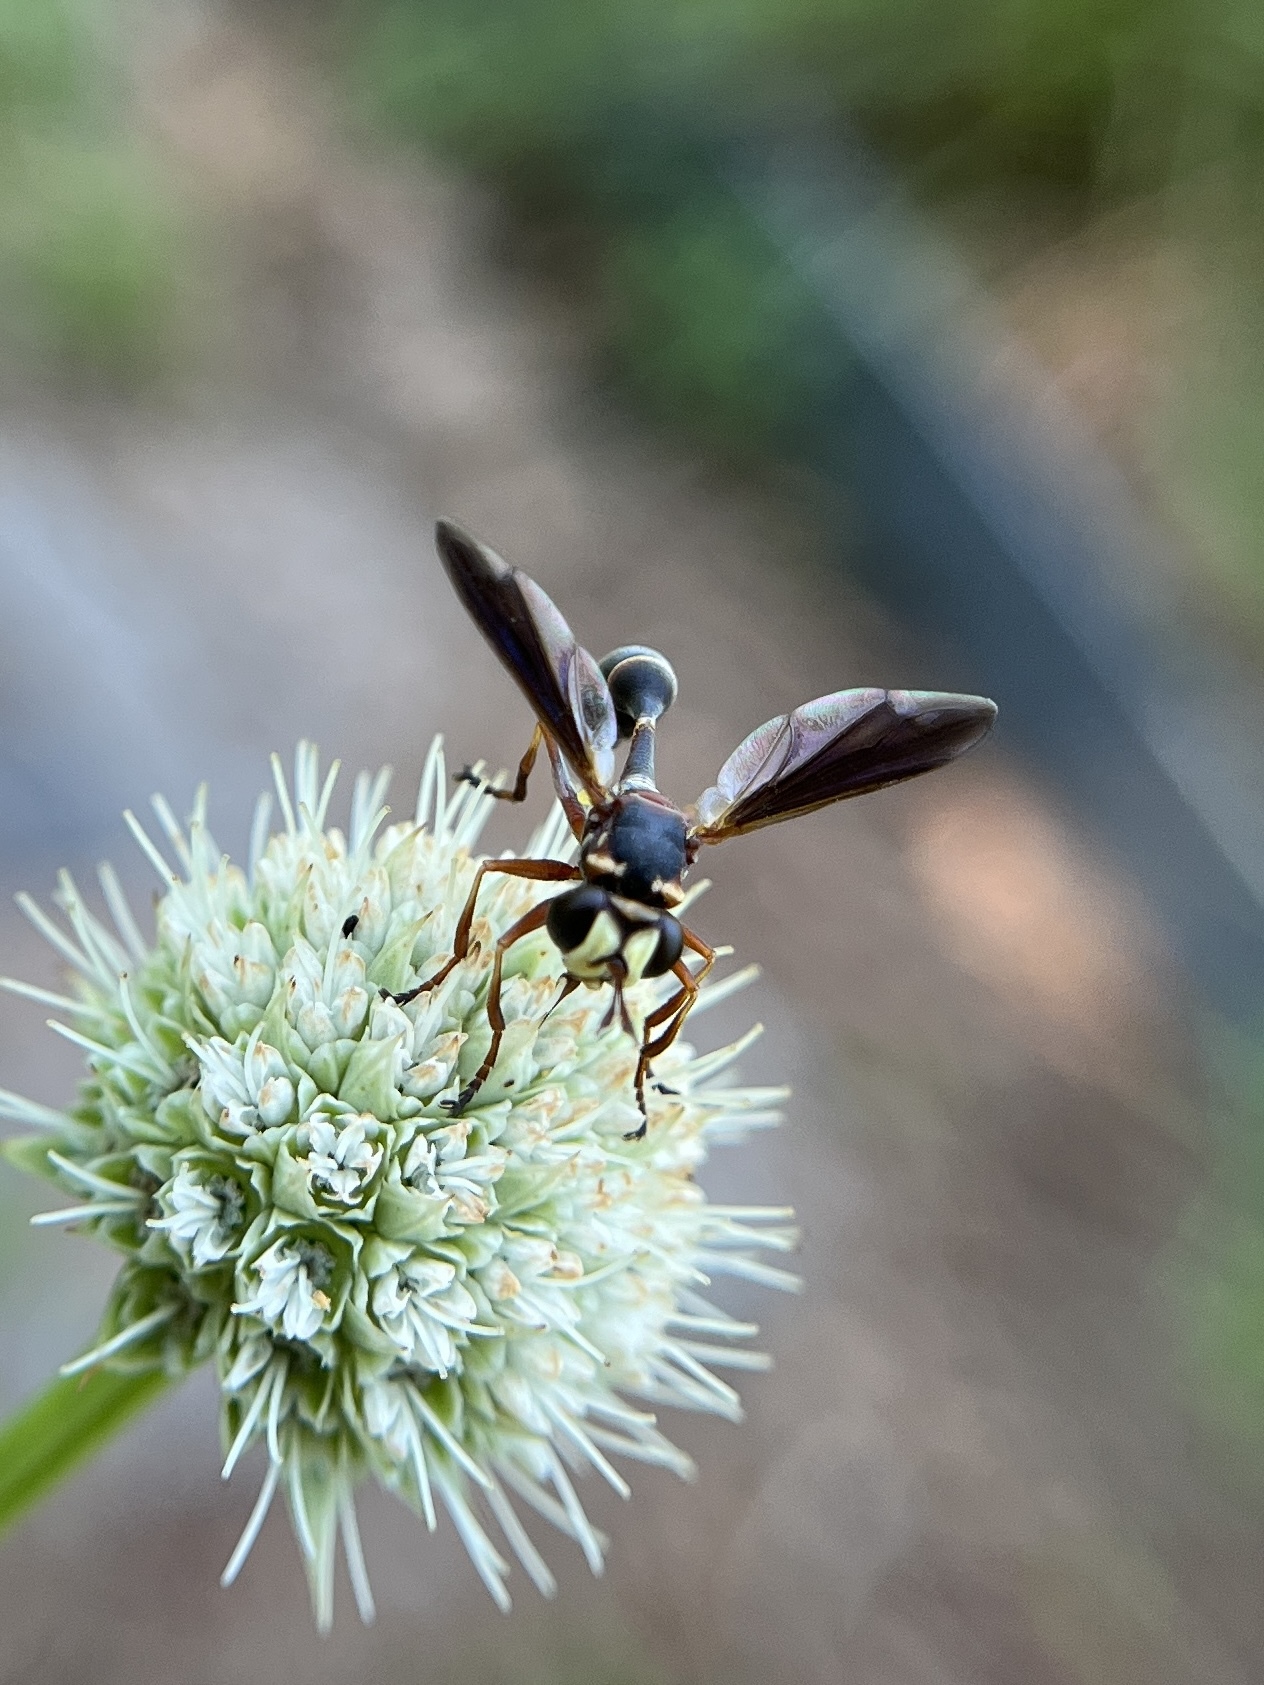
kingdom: Animalia
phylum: Arthropoda
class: Insecta
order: Diptera
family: Conopidae
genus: Physocephala
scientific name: Physocephala sagittaria
